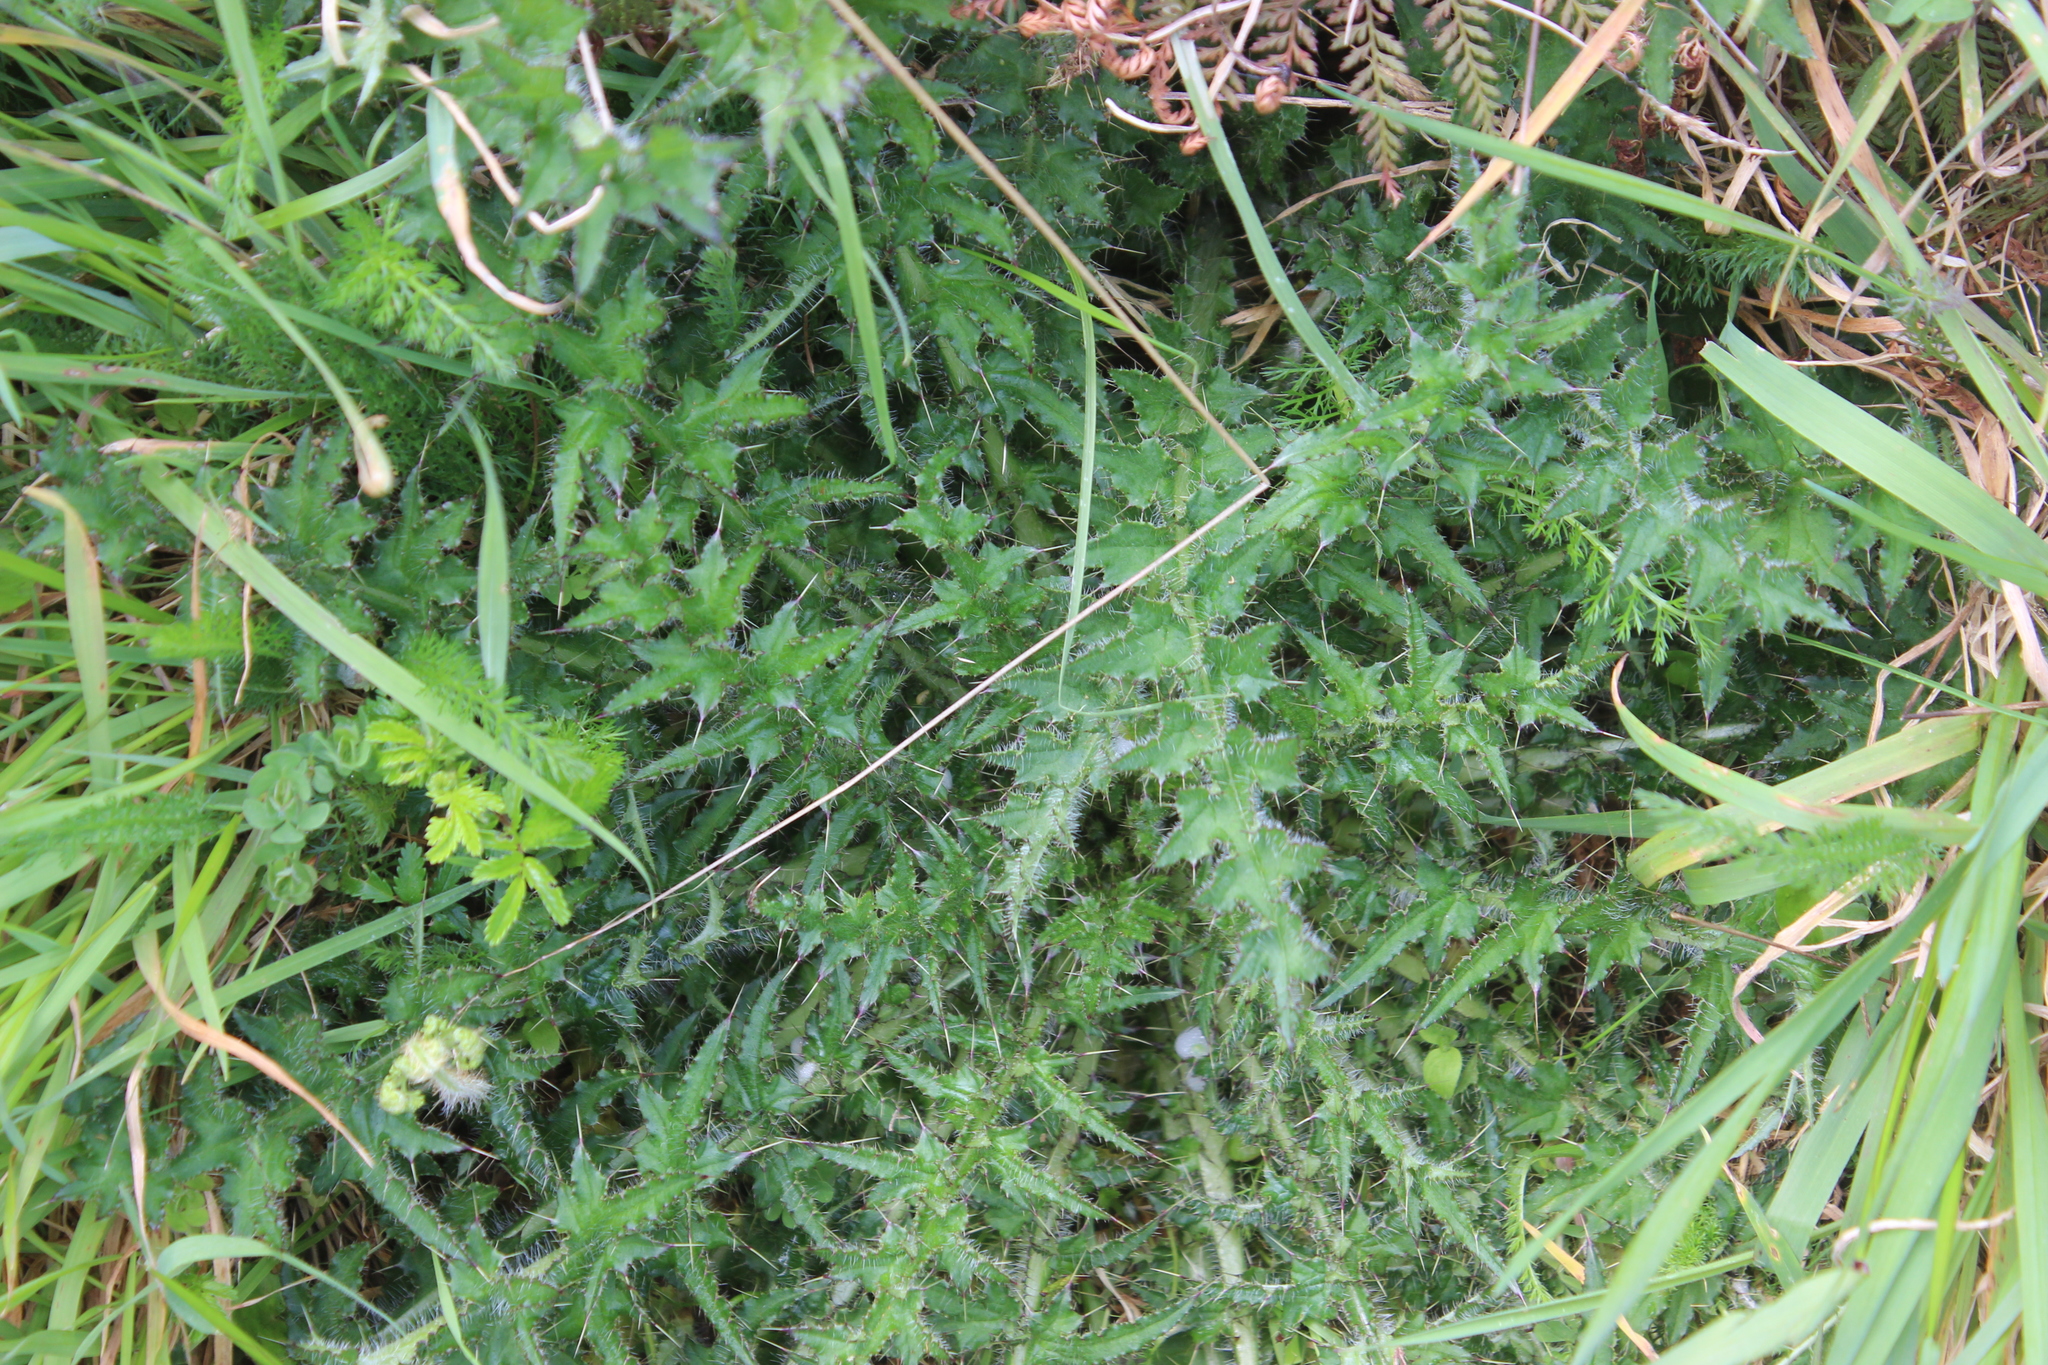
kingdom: Plantae
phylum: Tracheophyta
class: Magnoliopsida
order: Asterales
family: Asteraceae
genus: Cirsium
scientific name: Cirsium palustre
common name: Marsh thistle
